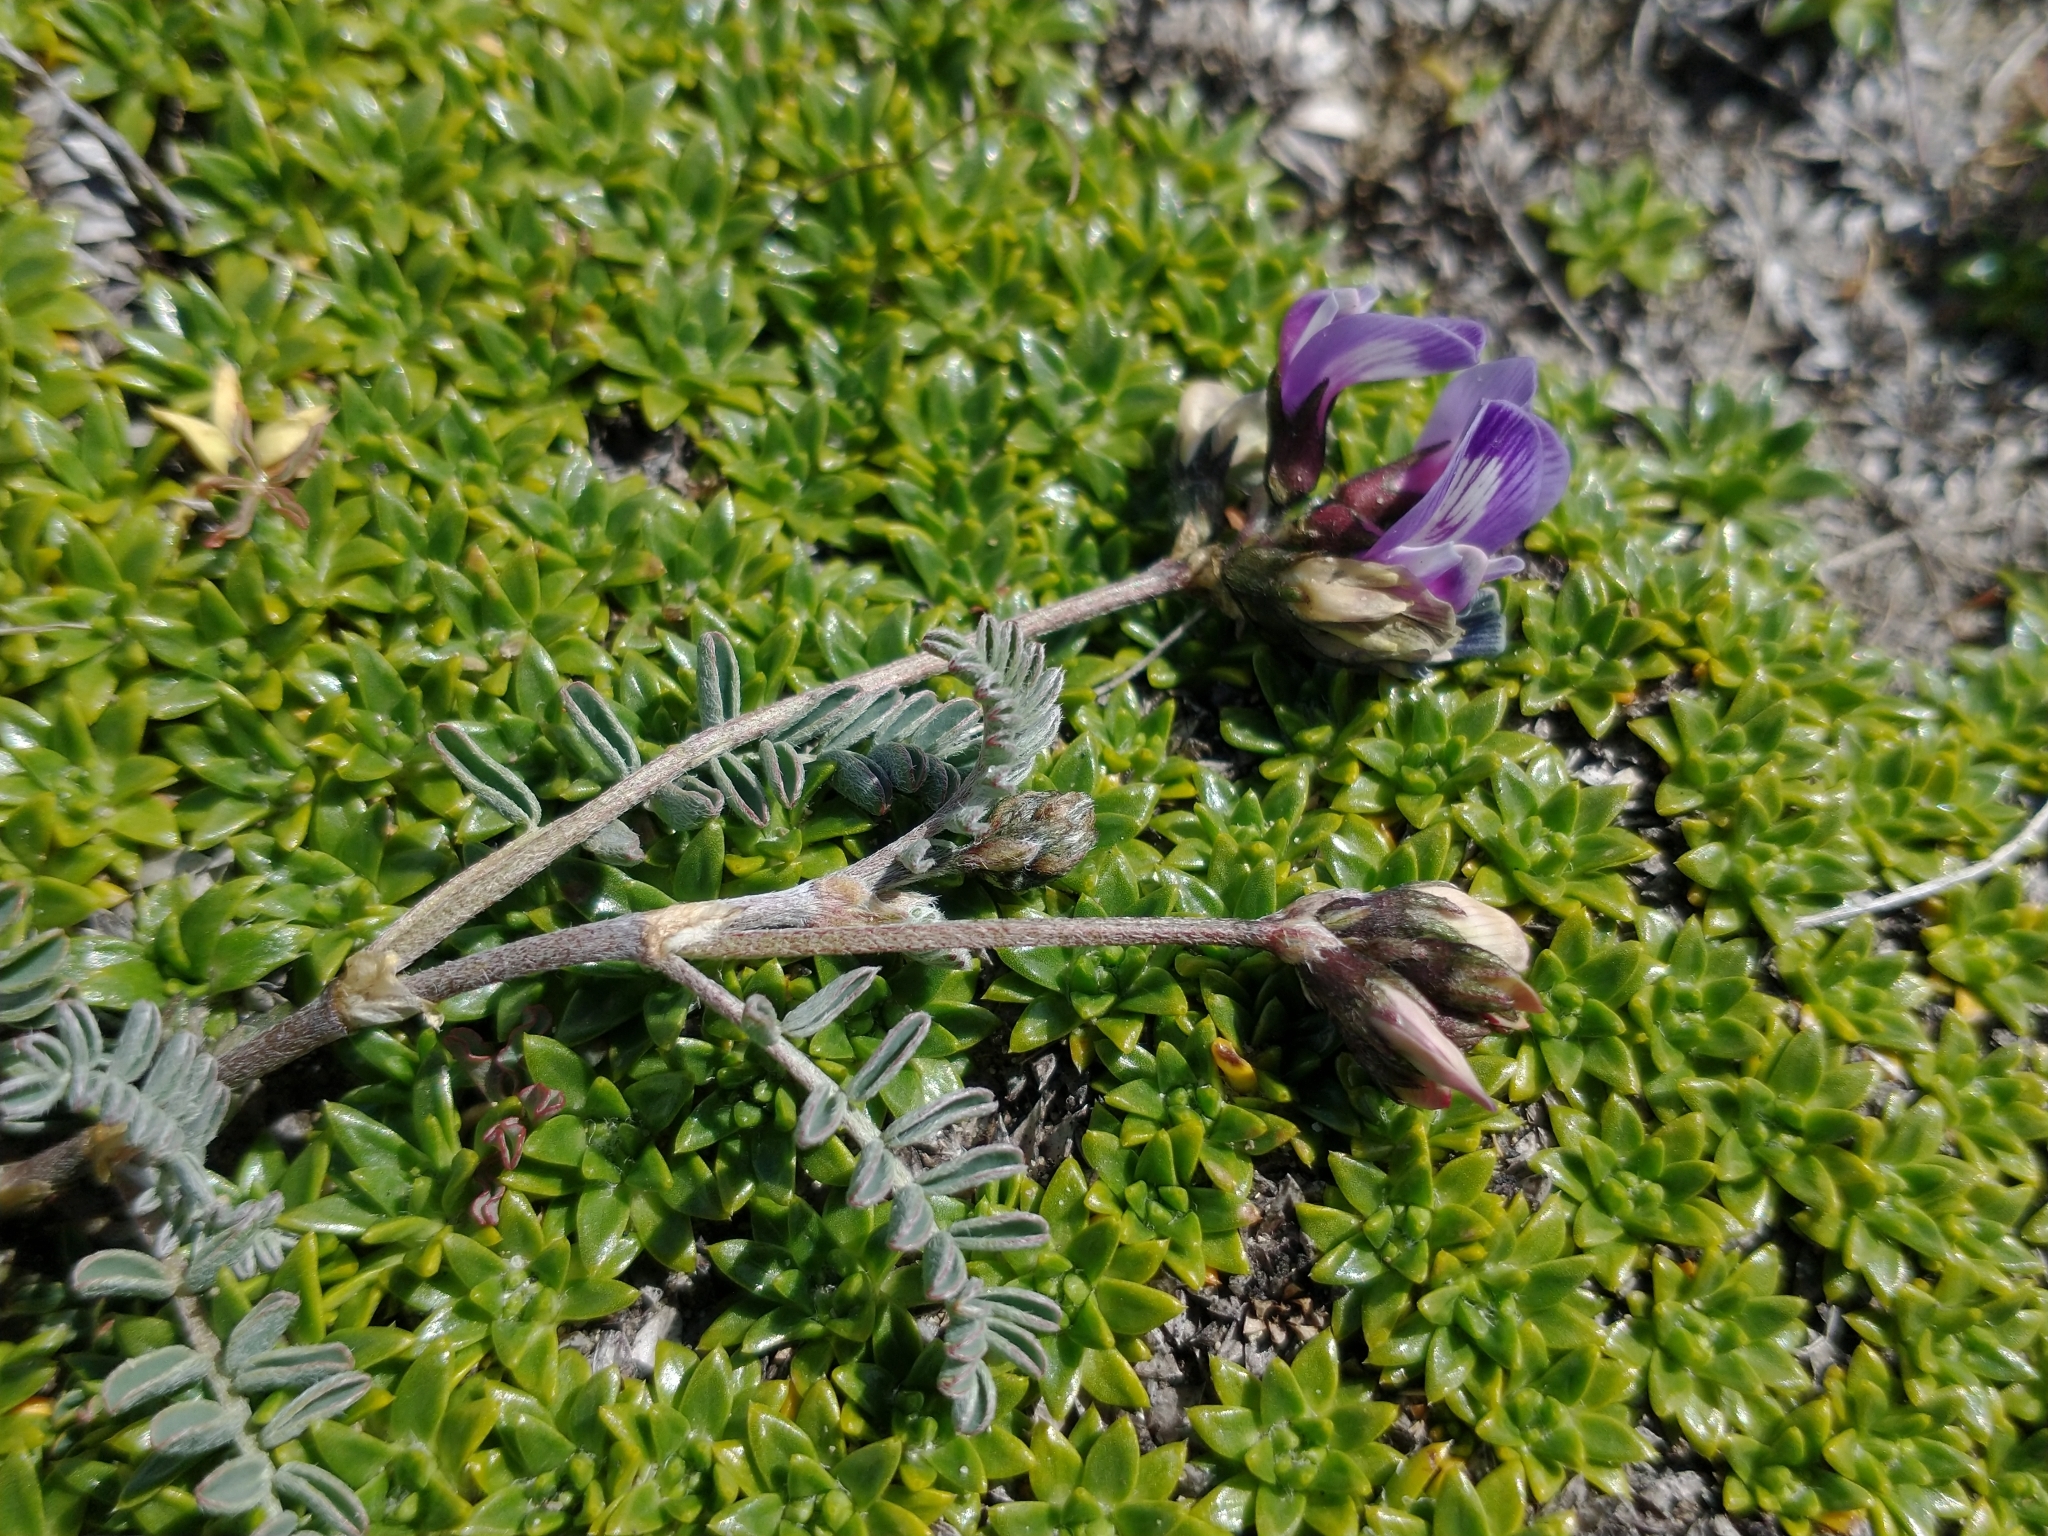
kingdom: Plantae
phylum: Tracheophyta
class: Magnoliopsida
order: Fabales
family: Fabaceae
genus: Astragalus
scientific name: Astragalus palenae
